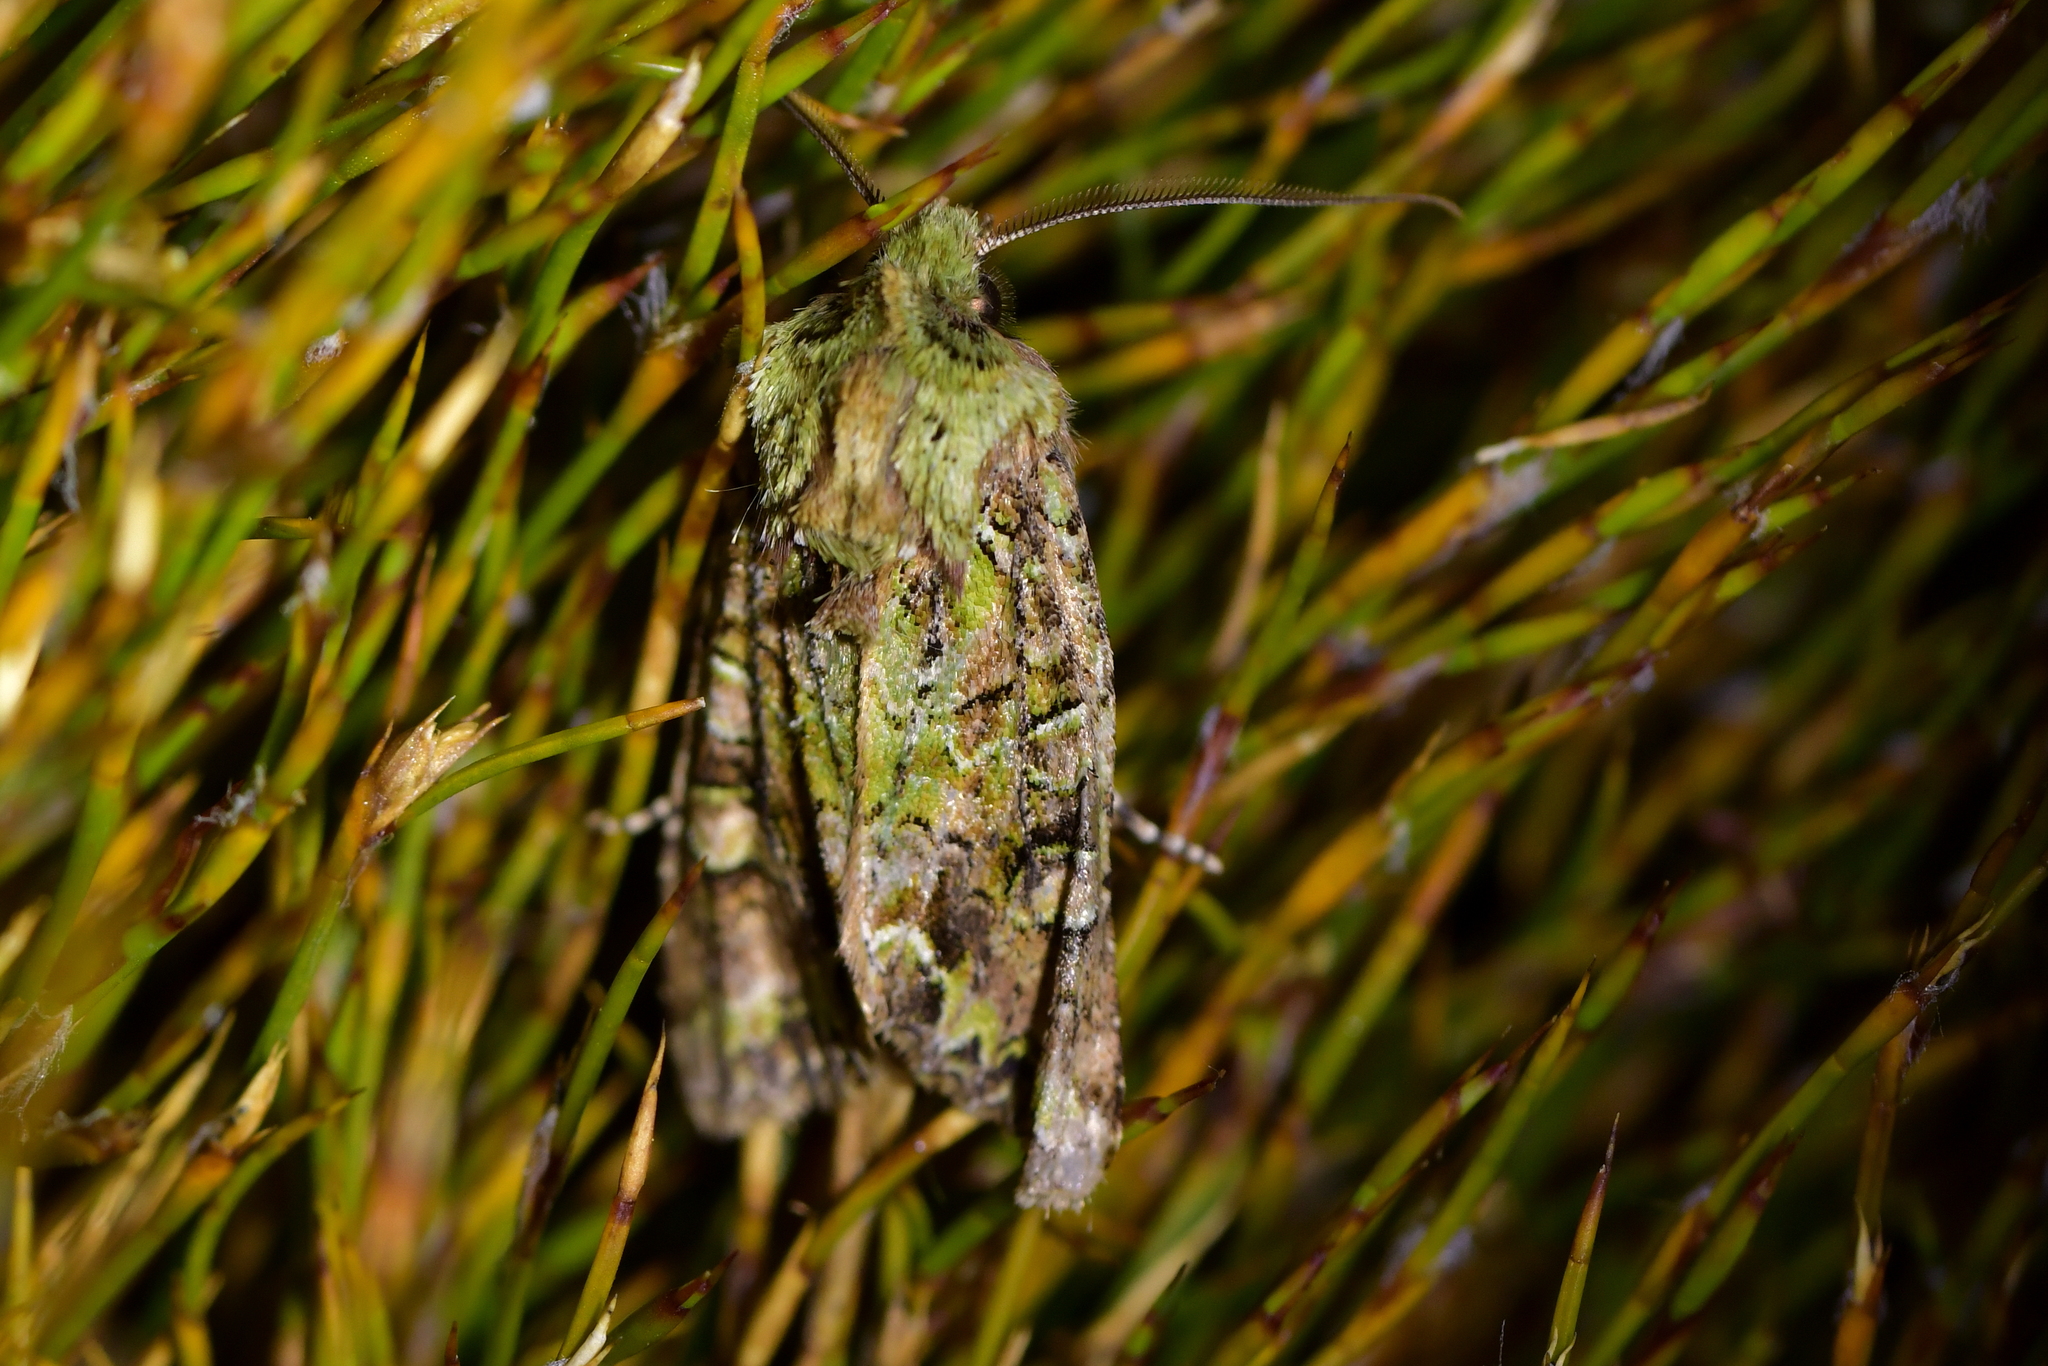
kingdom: Animalia
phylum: Arthropoda
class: Insecta
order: Lepidoptera
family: Noctuidae
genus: Ichneutica
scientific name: Ichneutica
